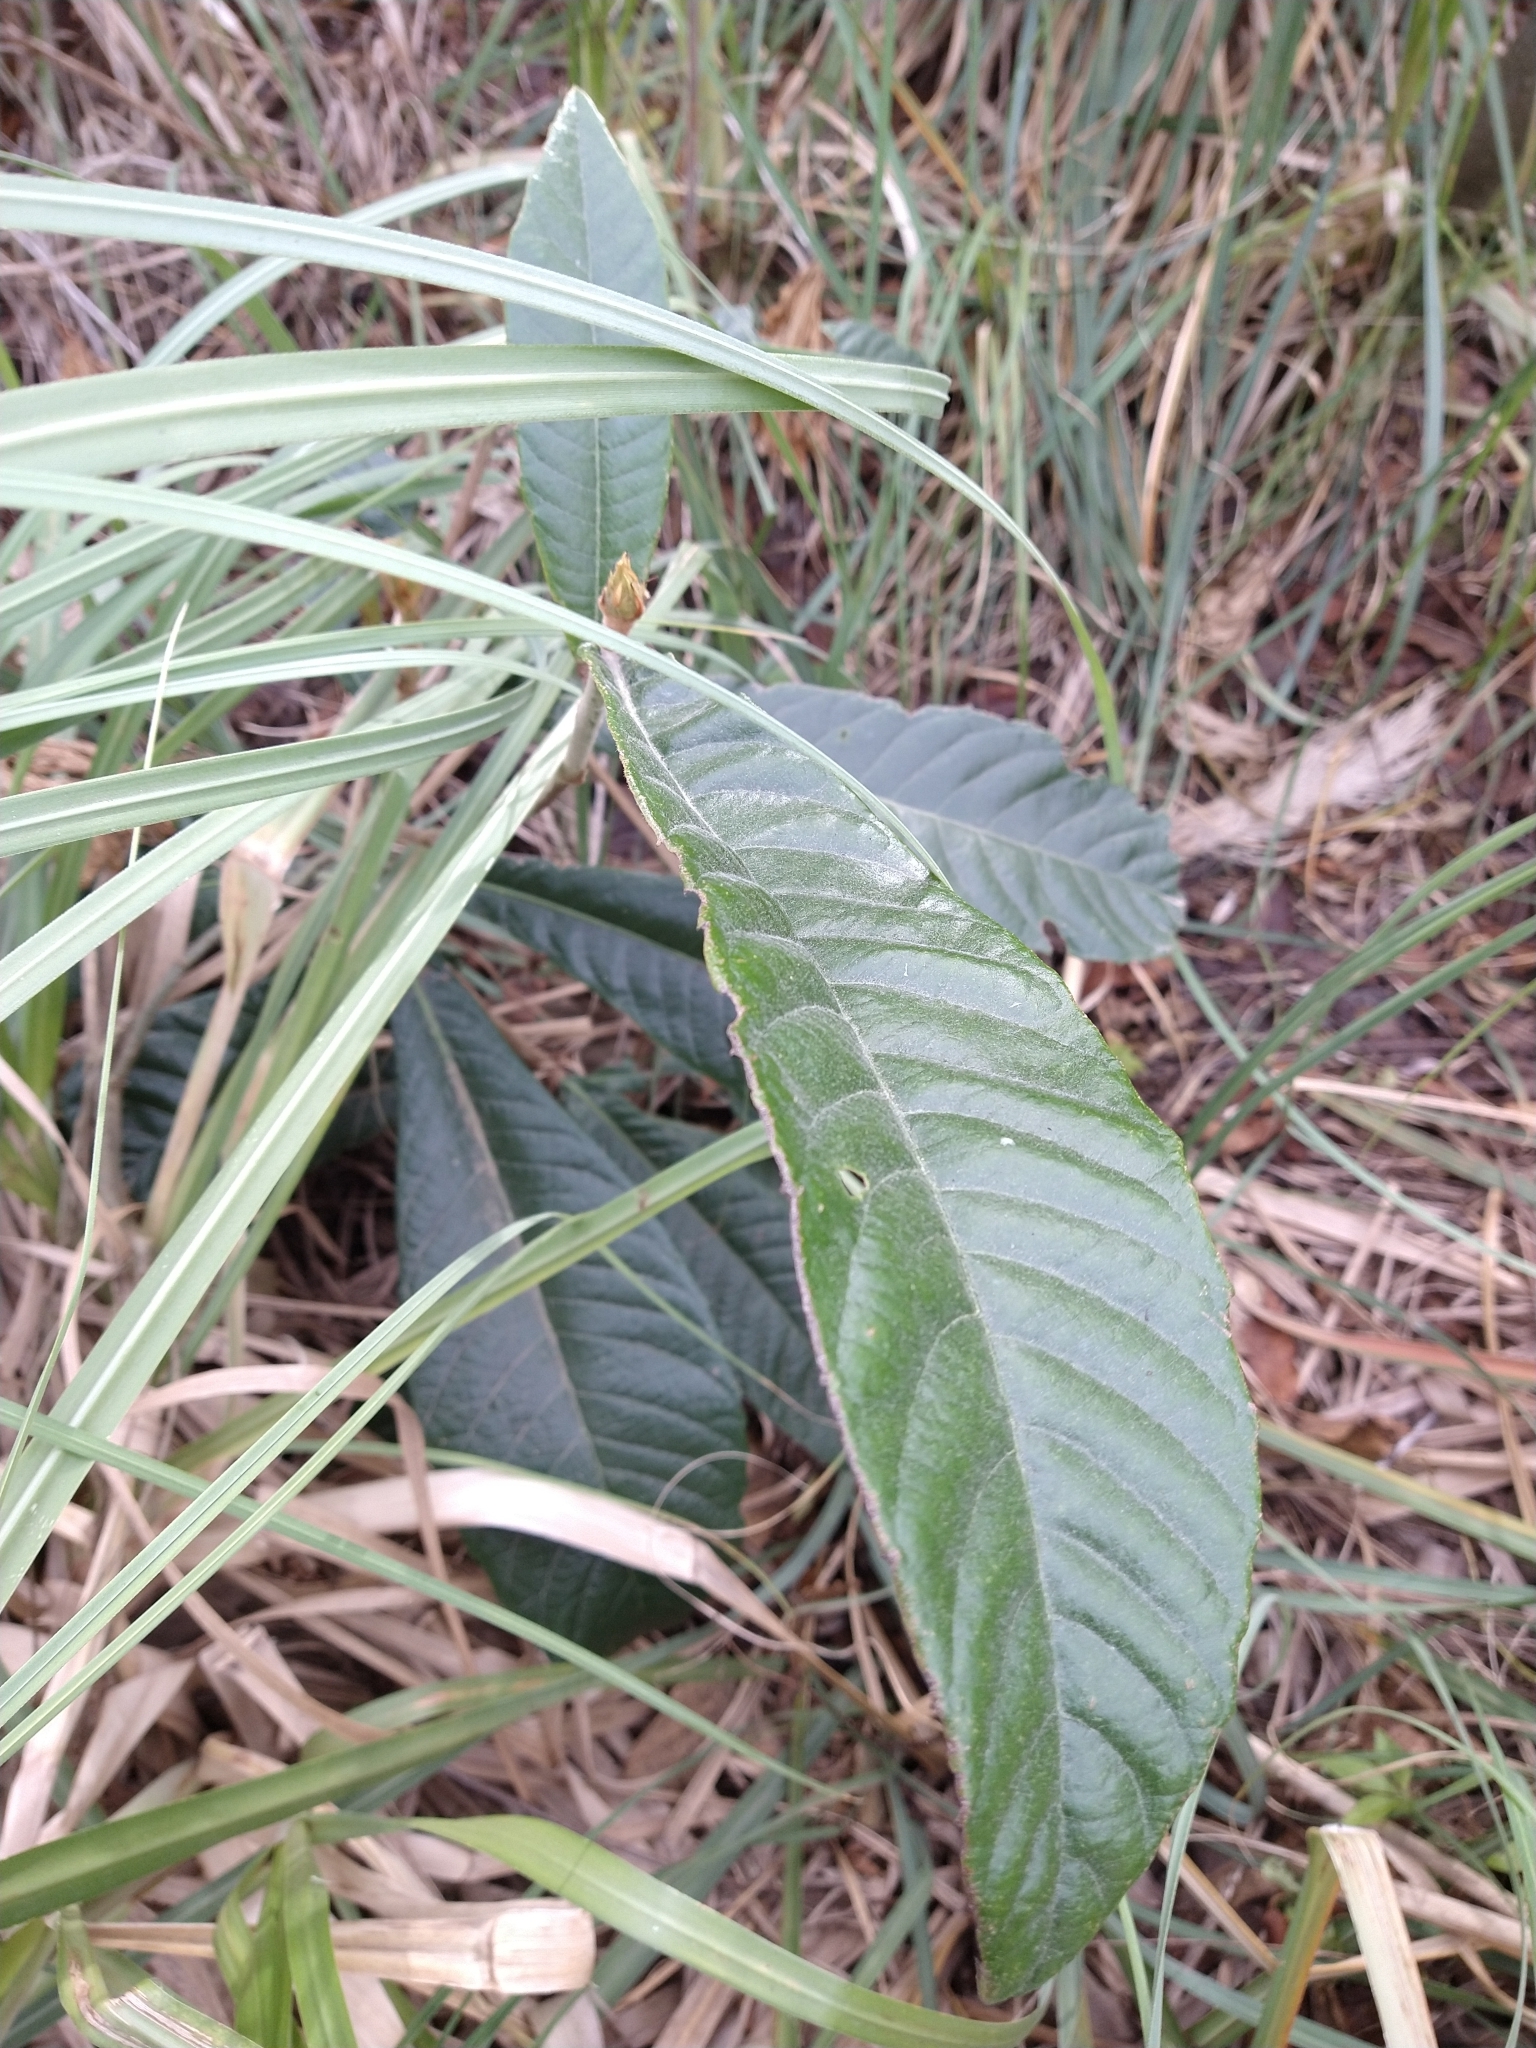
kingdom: Plantae
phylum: Tracheophyta
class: Magnoliopsida
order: Rosales
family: Rosaceae
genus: Rhaphiolepis
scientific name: Rhaphiolepis bibas
